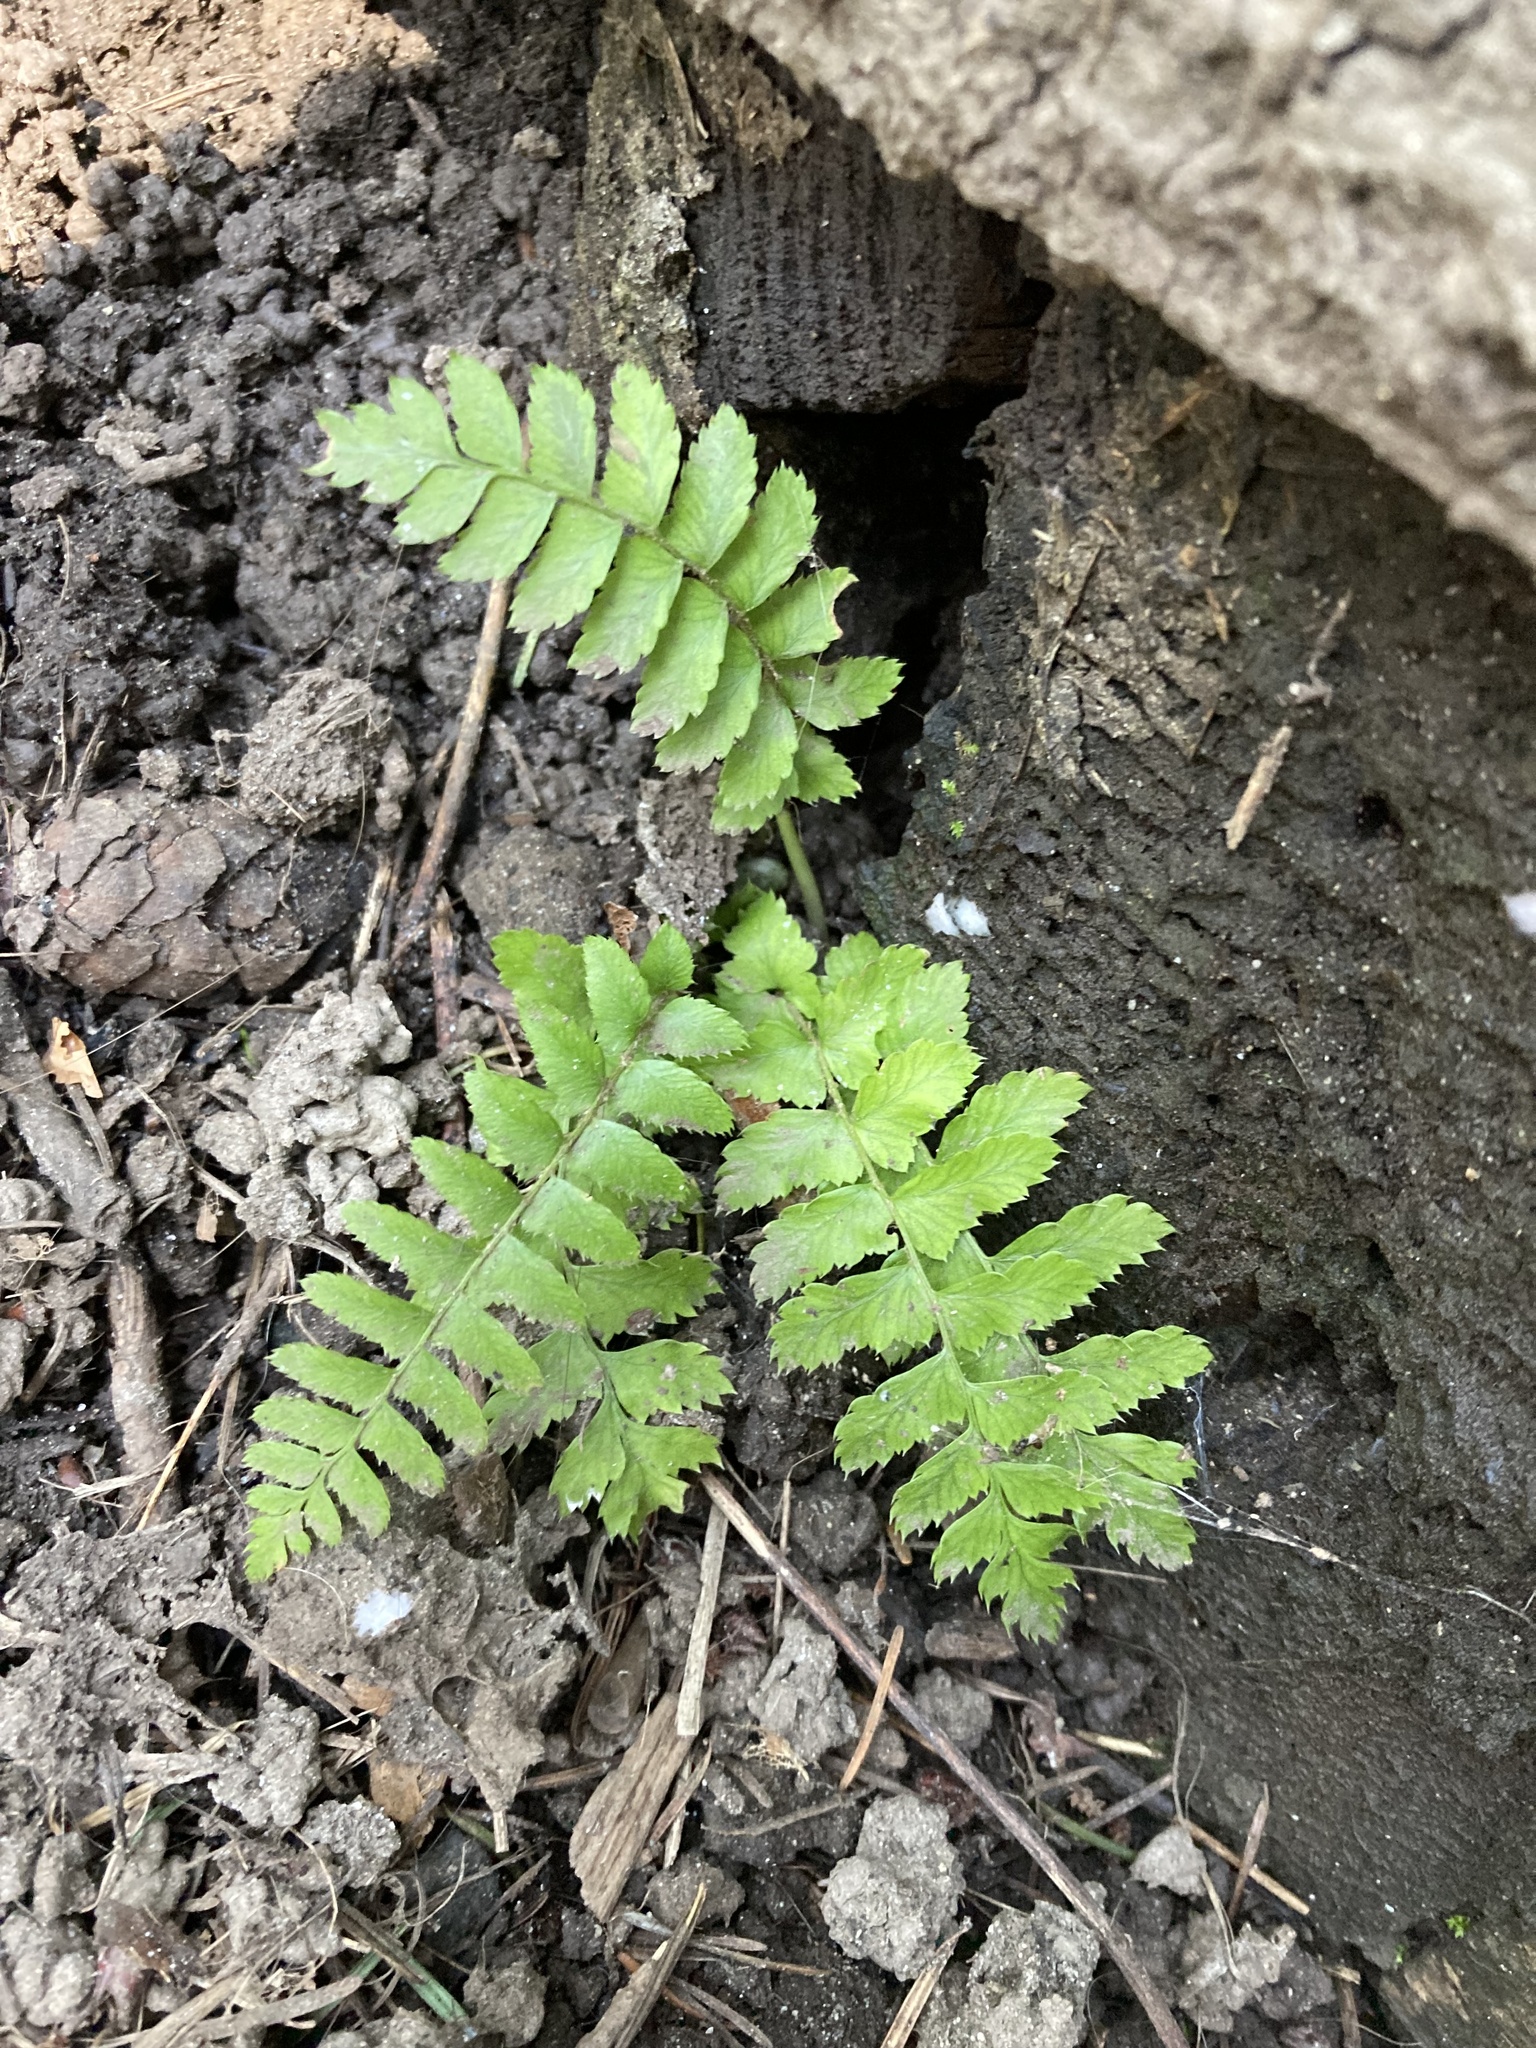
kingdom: Plantae
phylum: Tracheophyta
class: Polypodiopsida
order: Polypodiales
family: Dryopteridaceae
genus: Polystichum
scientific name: Polystichum munitum
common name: Western sword-fern
